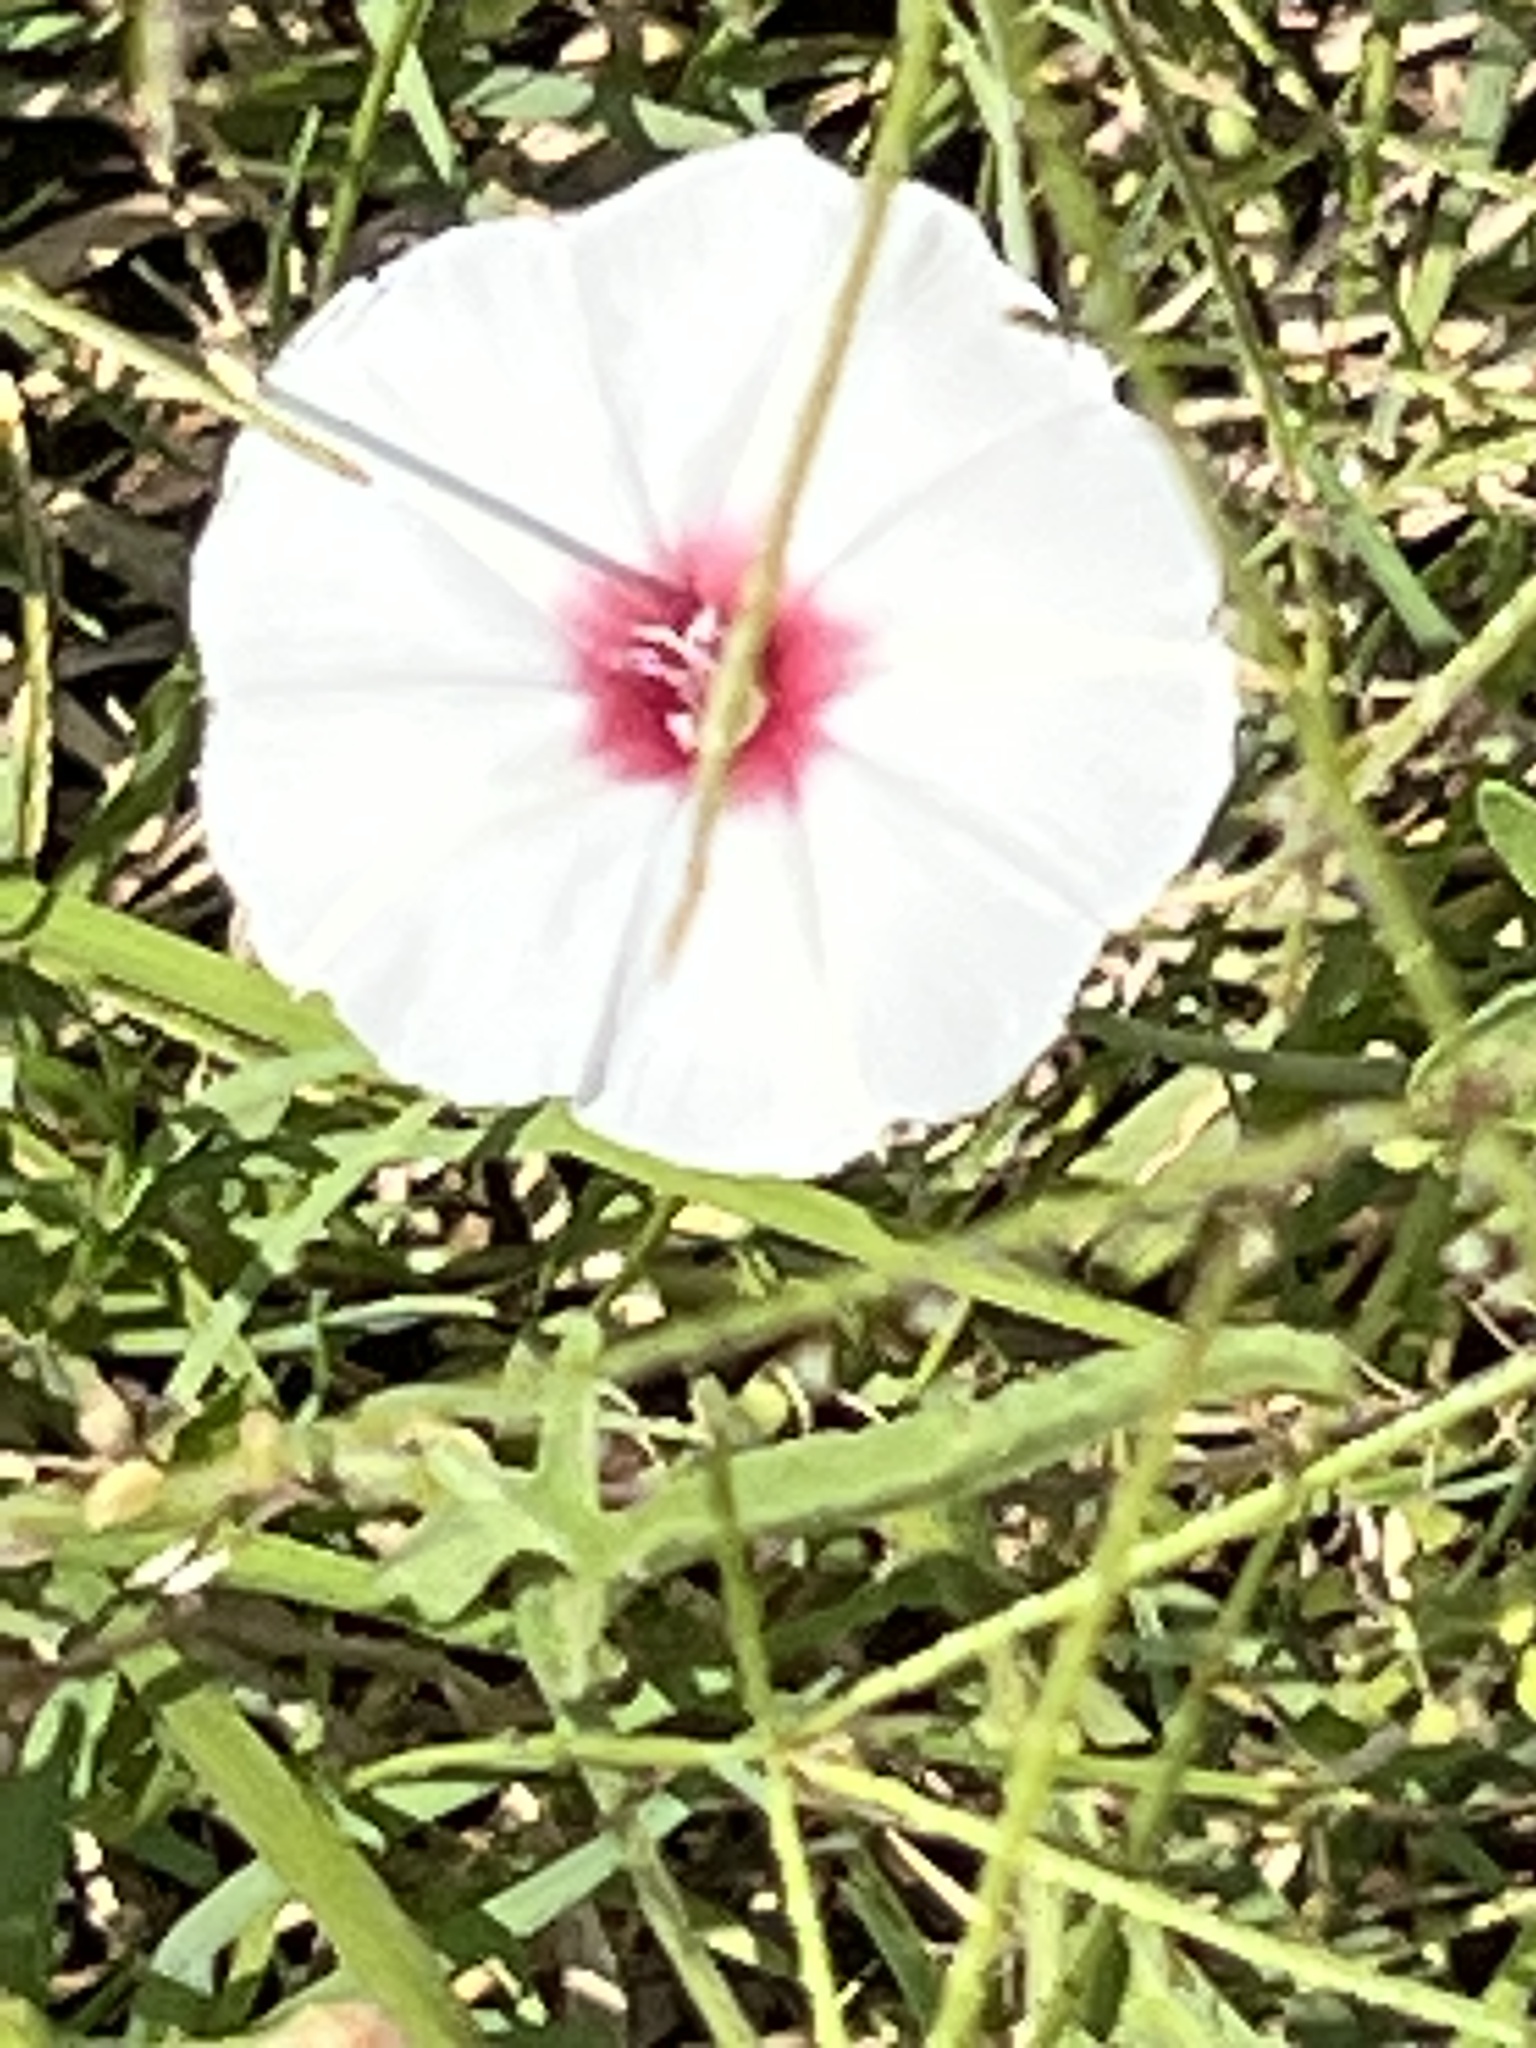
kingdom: Plantae
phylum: Tracheophyta
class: Magnoliopsida
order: Solanales
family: Convolvulaceae
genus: Convolvulus
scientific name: Convolvulus equitans
